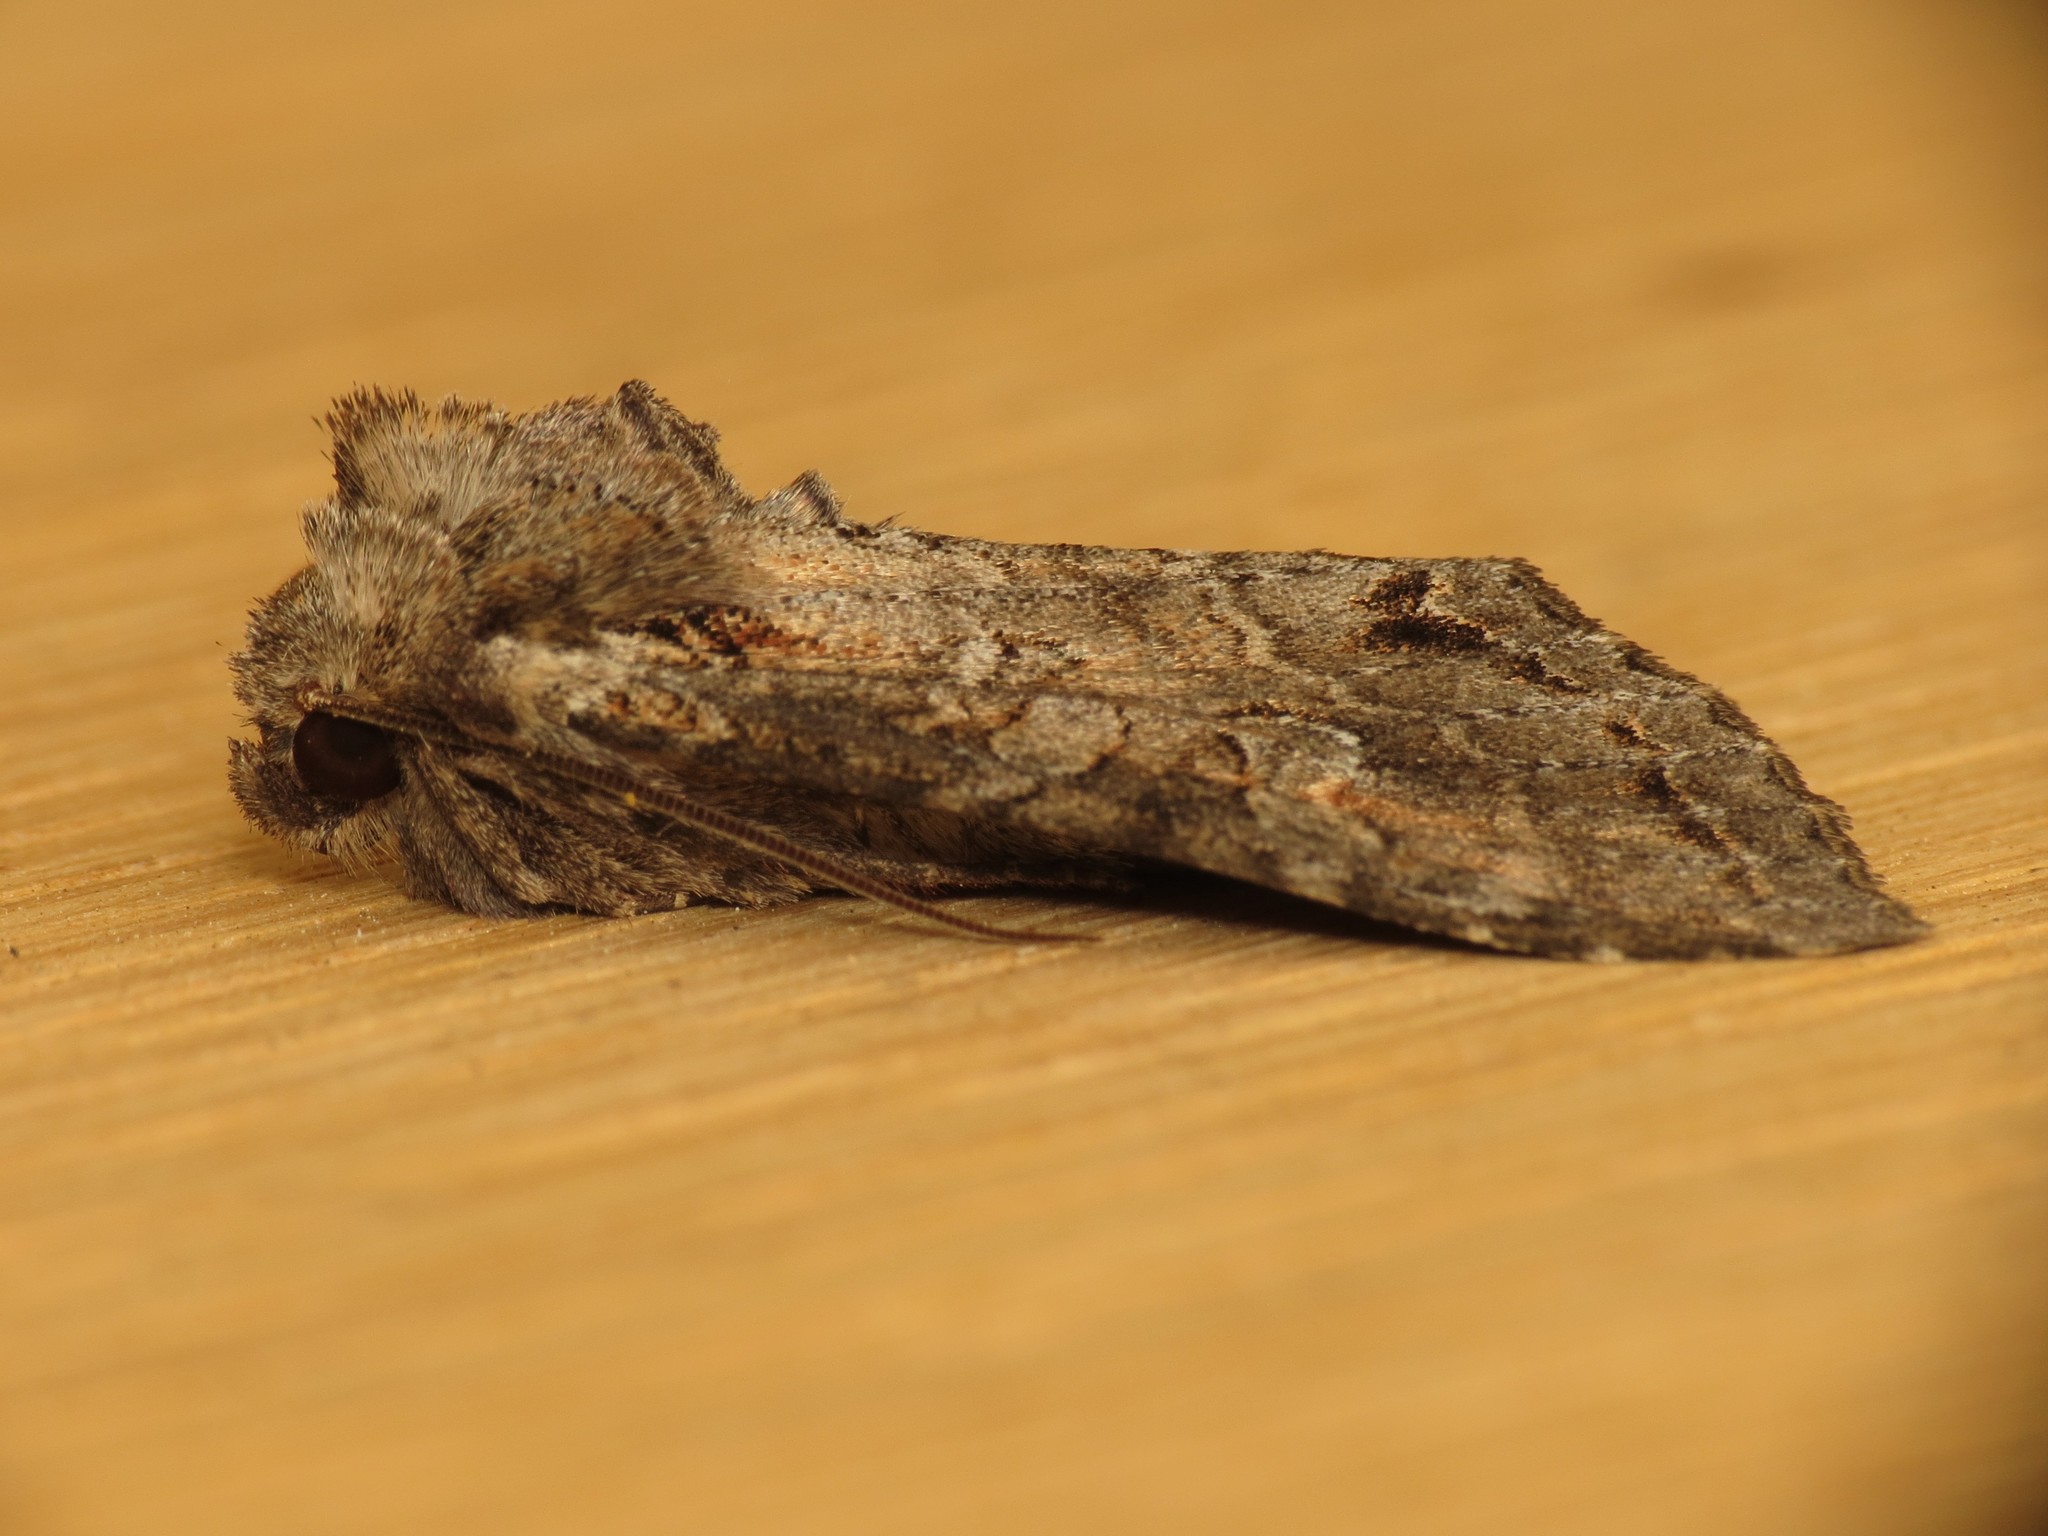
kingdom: Animalia
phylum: Arthropoda
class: Insecta
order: Lepidoptera
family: Noctuidae
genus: Polia
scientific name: Polia bombycina
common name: Pale shining brown
